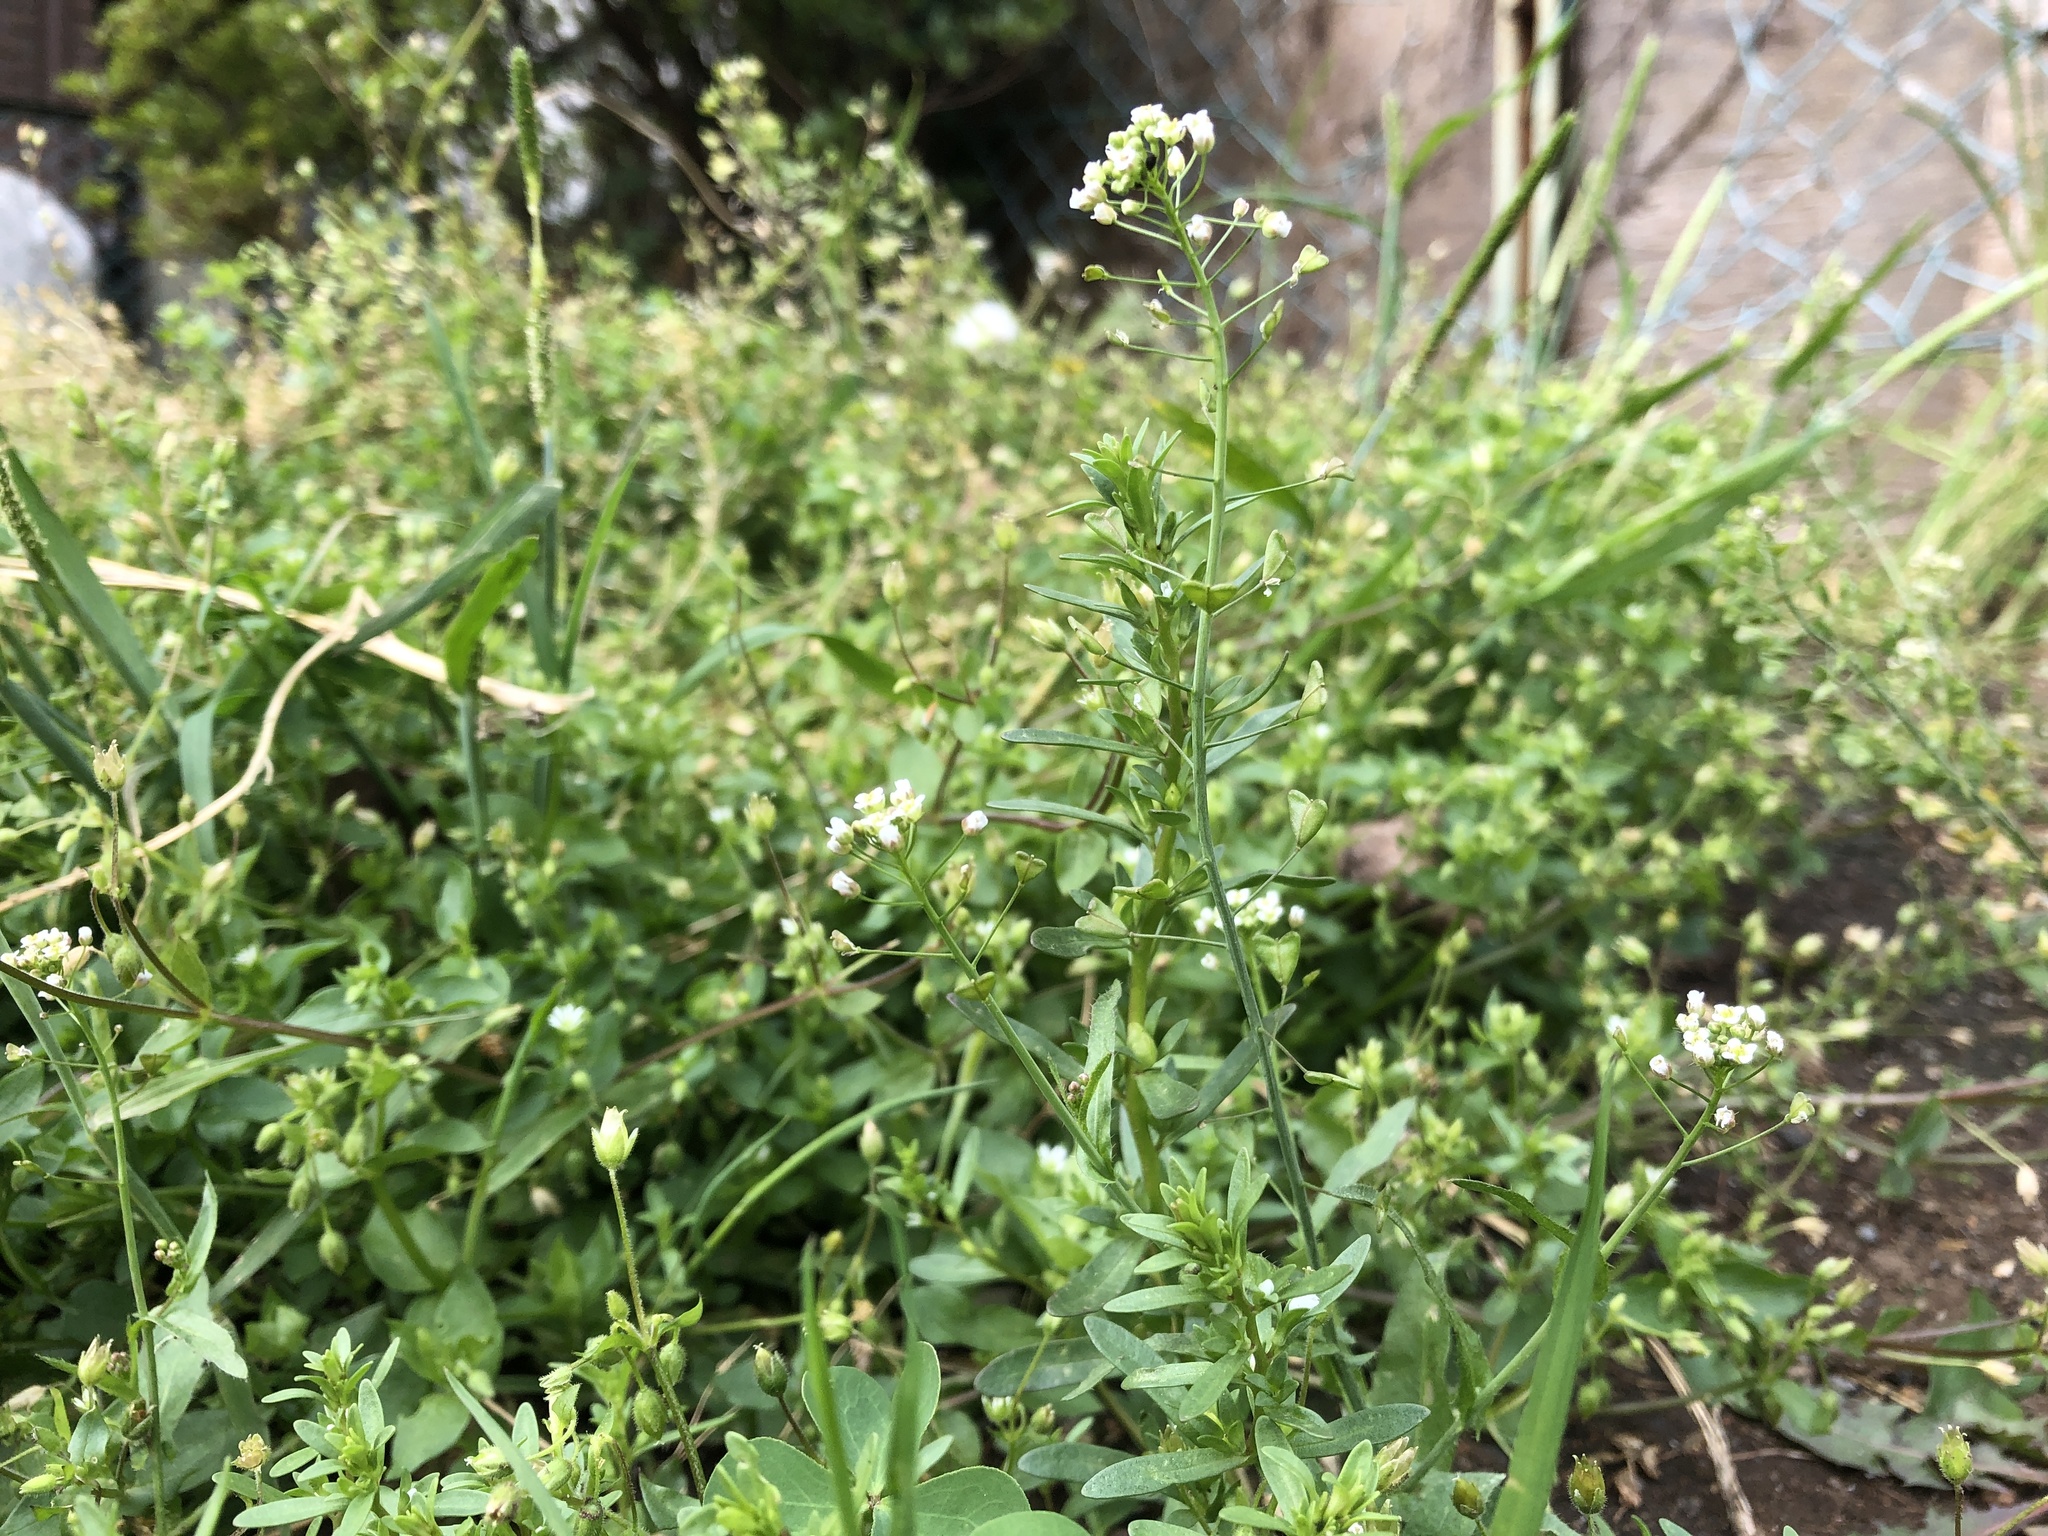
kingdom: Plantae
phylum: Tracheophyta
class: Magnoliopsida
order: Brassicales
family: Brassicaceae
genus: Capsella
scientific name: Capsella bursa-pastoris
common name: Shepherd's purse
